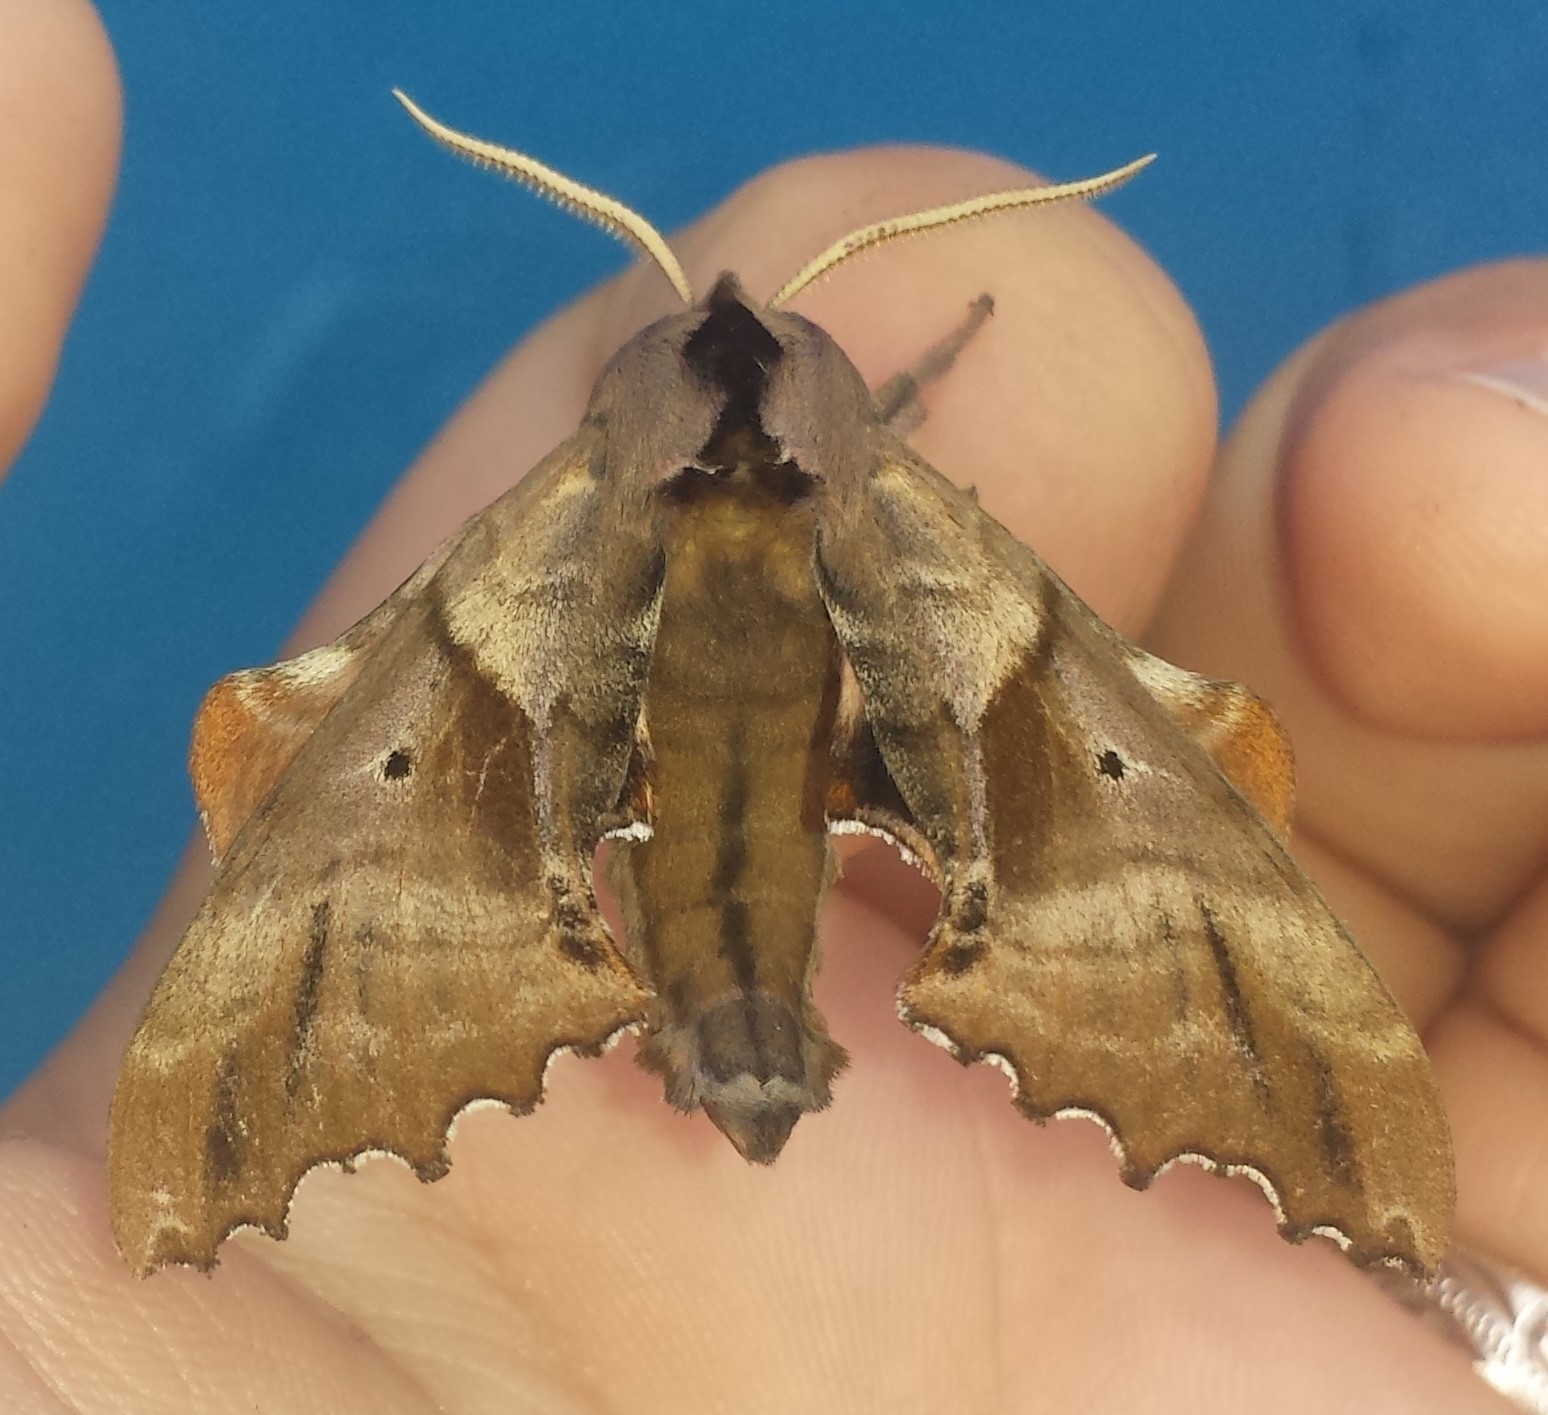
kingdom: Animalia
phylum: Arthropoda
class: Insecta
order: Lepidoptera
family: Sphingidae
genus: Paonias
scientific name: Paonias excaecata
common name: Blind-eyed sphinx
